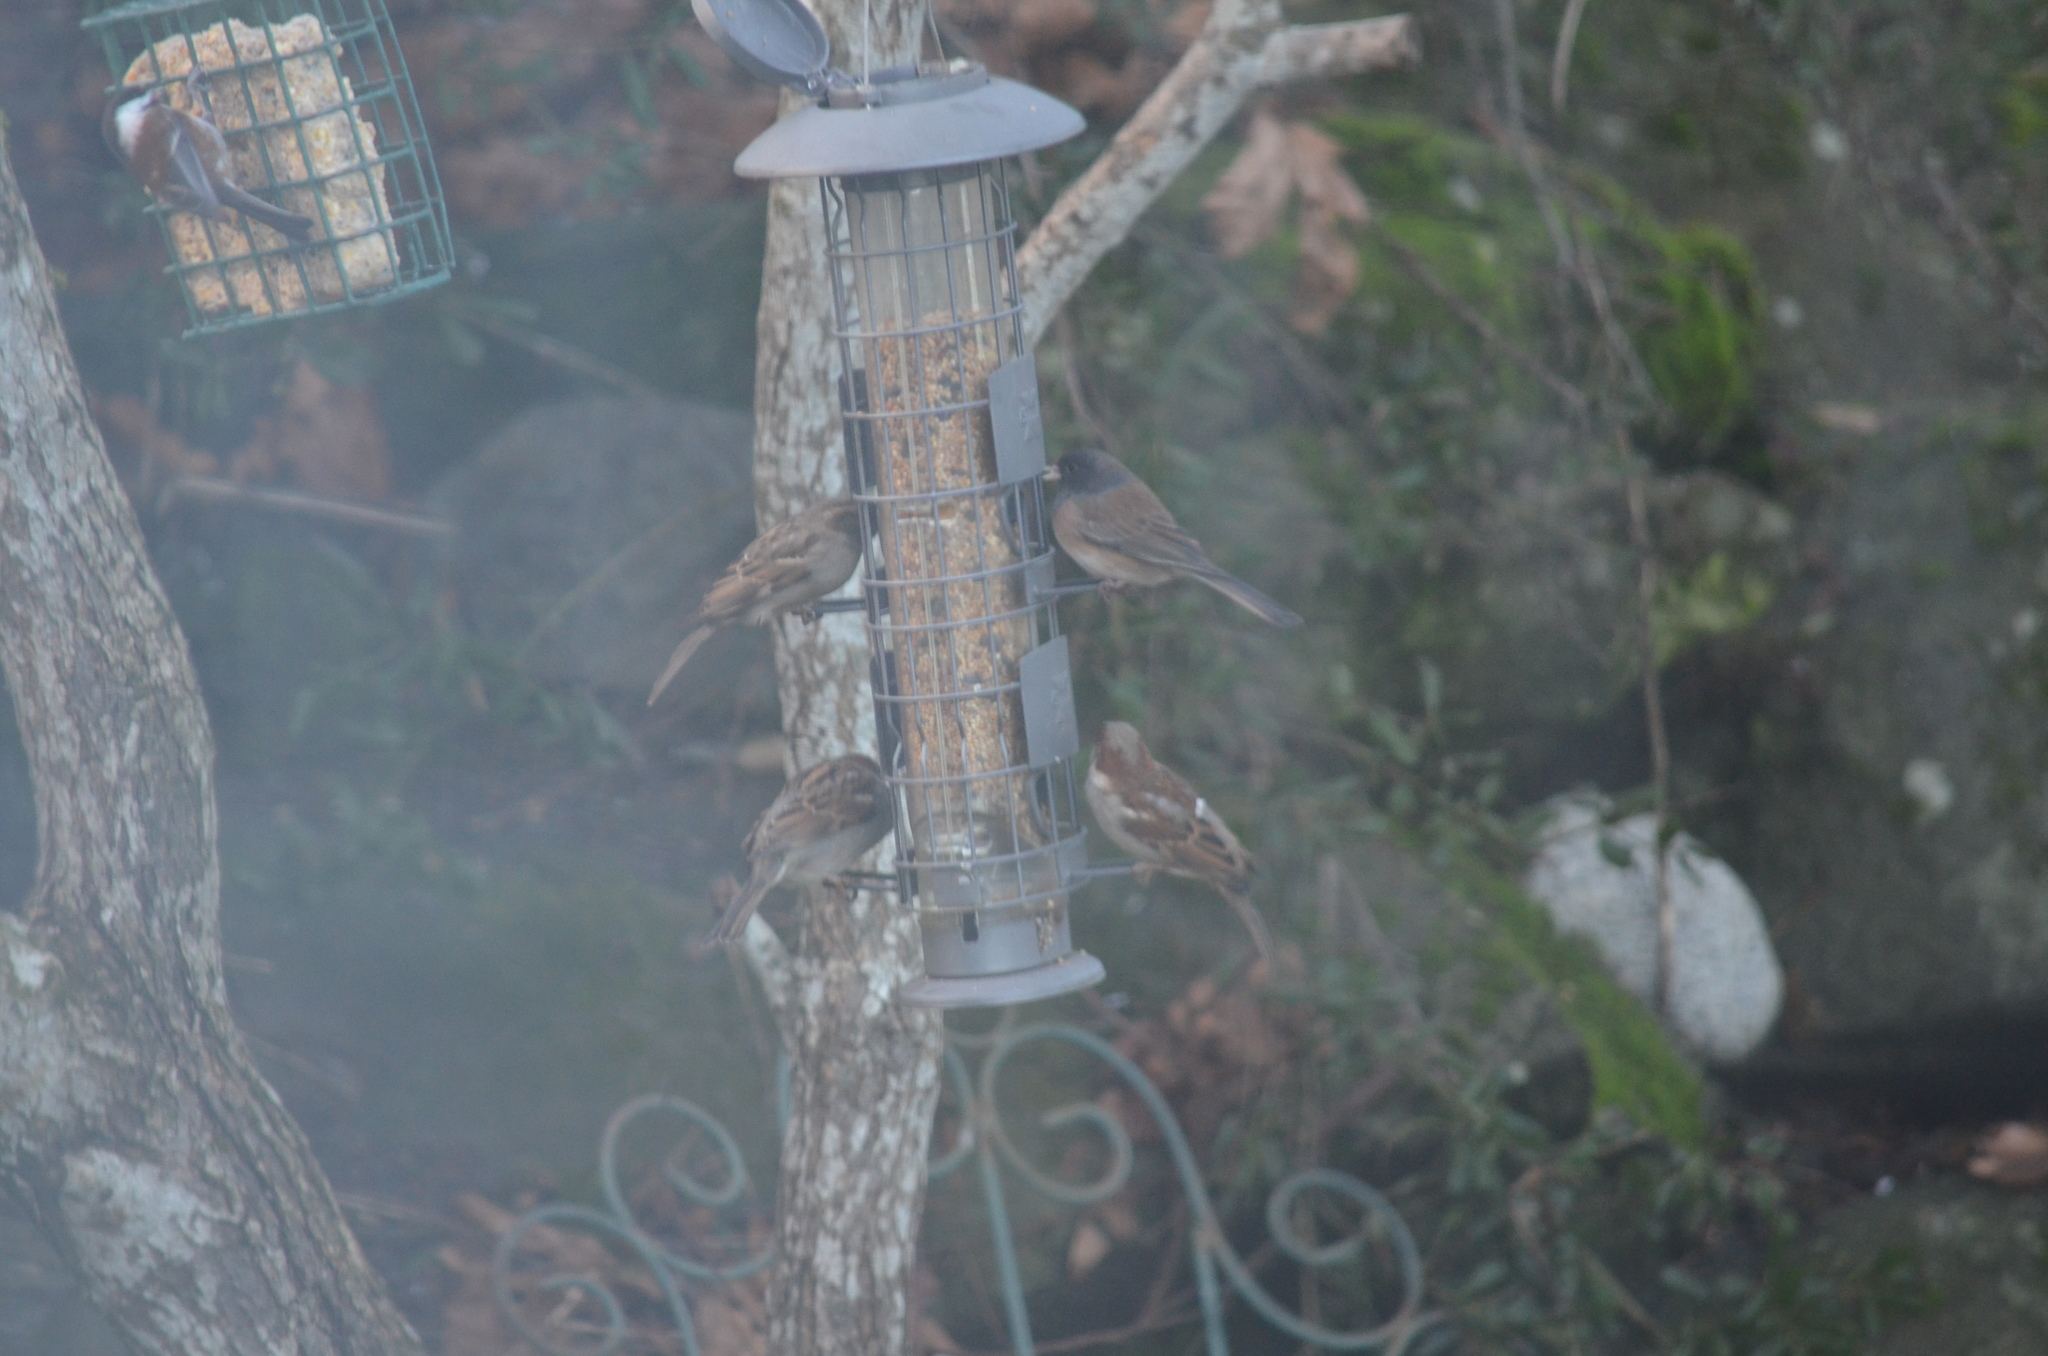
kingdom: Animalia
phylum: Chordata
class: Aves
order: Passeriformes
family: Passeridae
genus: Passer
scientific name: Passer domesticus
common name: House sparrow
